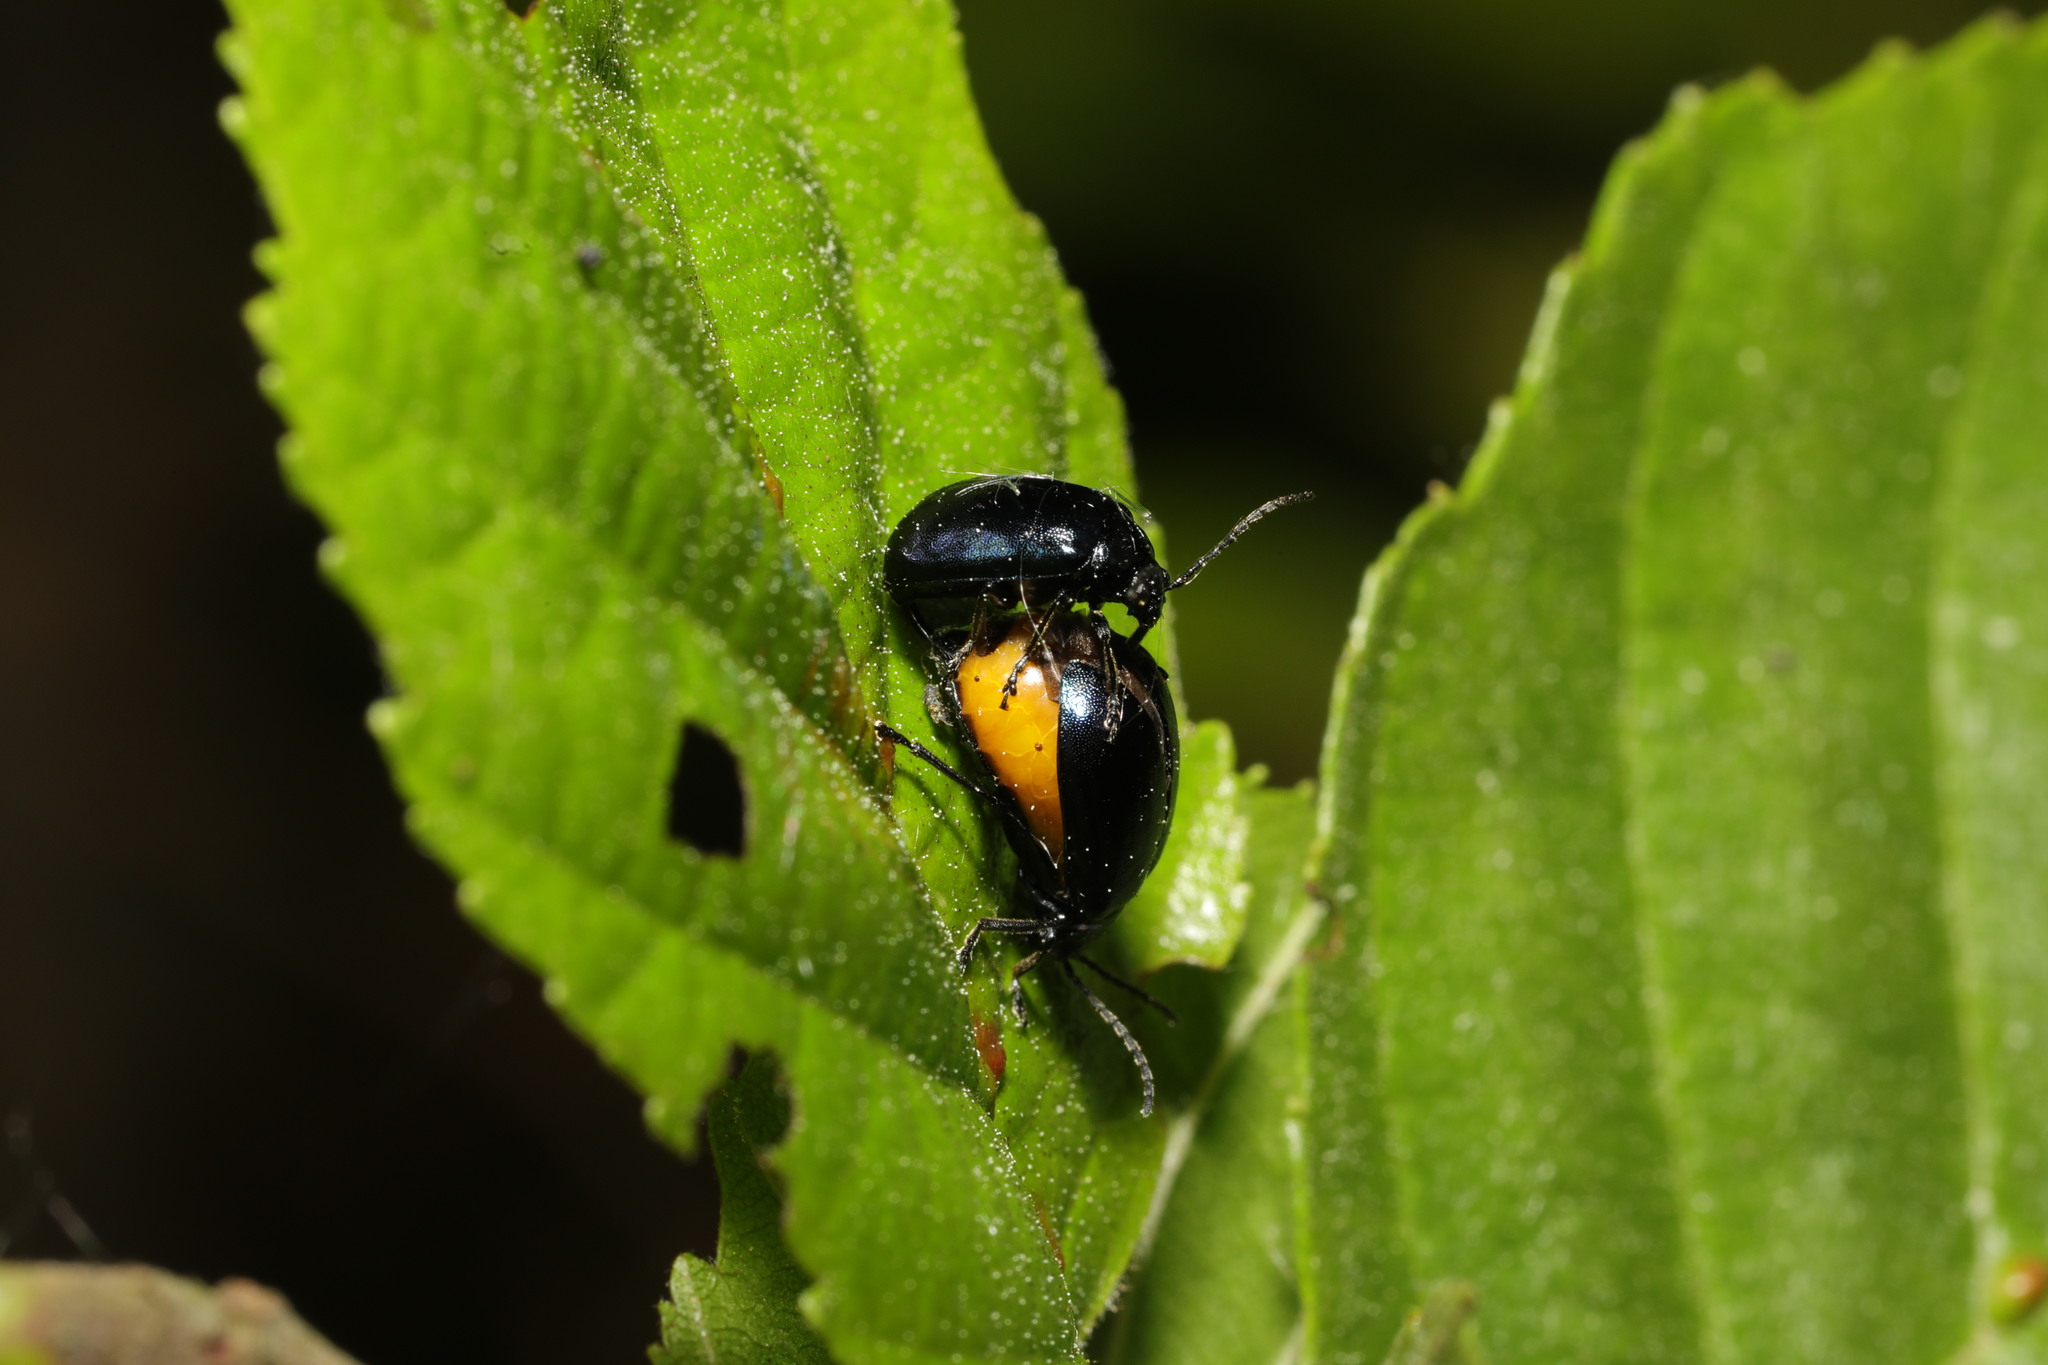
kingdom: Animalia
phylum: Arthropoda
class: Insecta
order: Coleoptera
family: Chrysomelidae
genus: Agelastica
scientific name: Agelastica alni
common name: Alder leaf beetle
